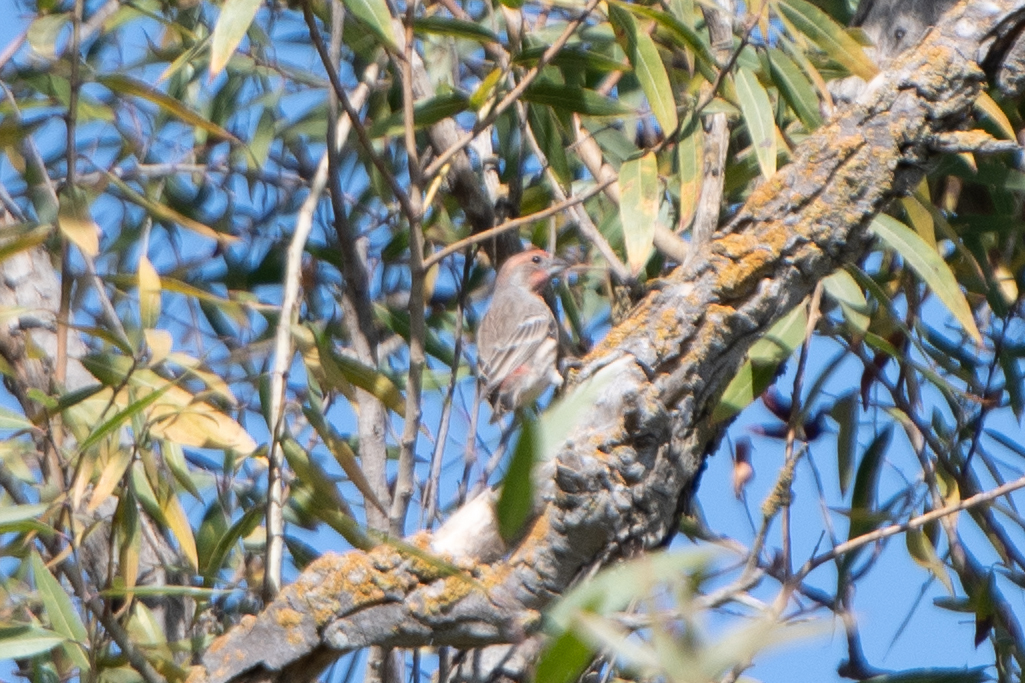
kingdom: Animalia
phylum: Chordata
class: Aves
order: Passeriformes
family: Fringillidae
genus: Haemorhous
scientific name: Haemorhous mexicanus
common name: House finch
